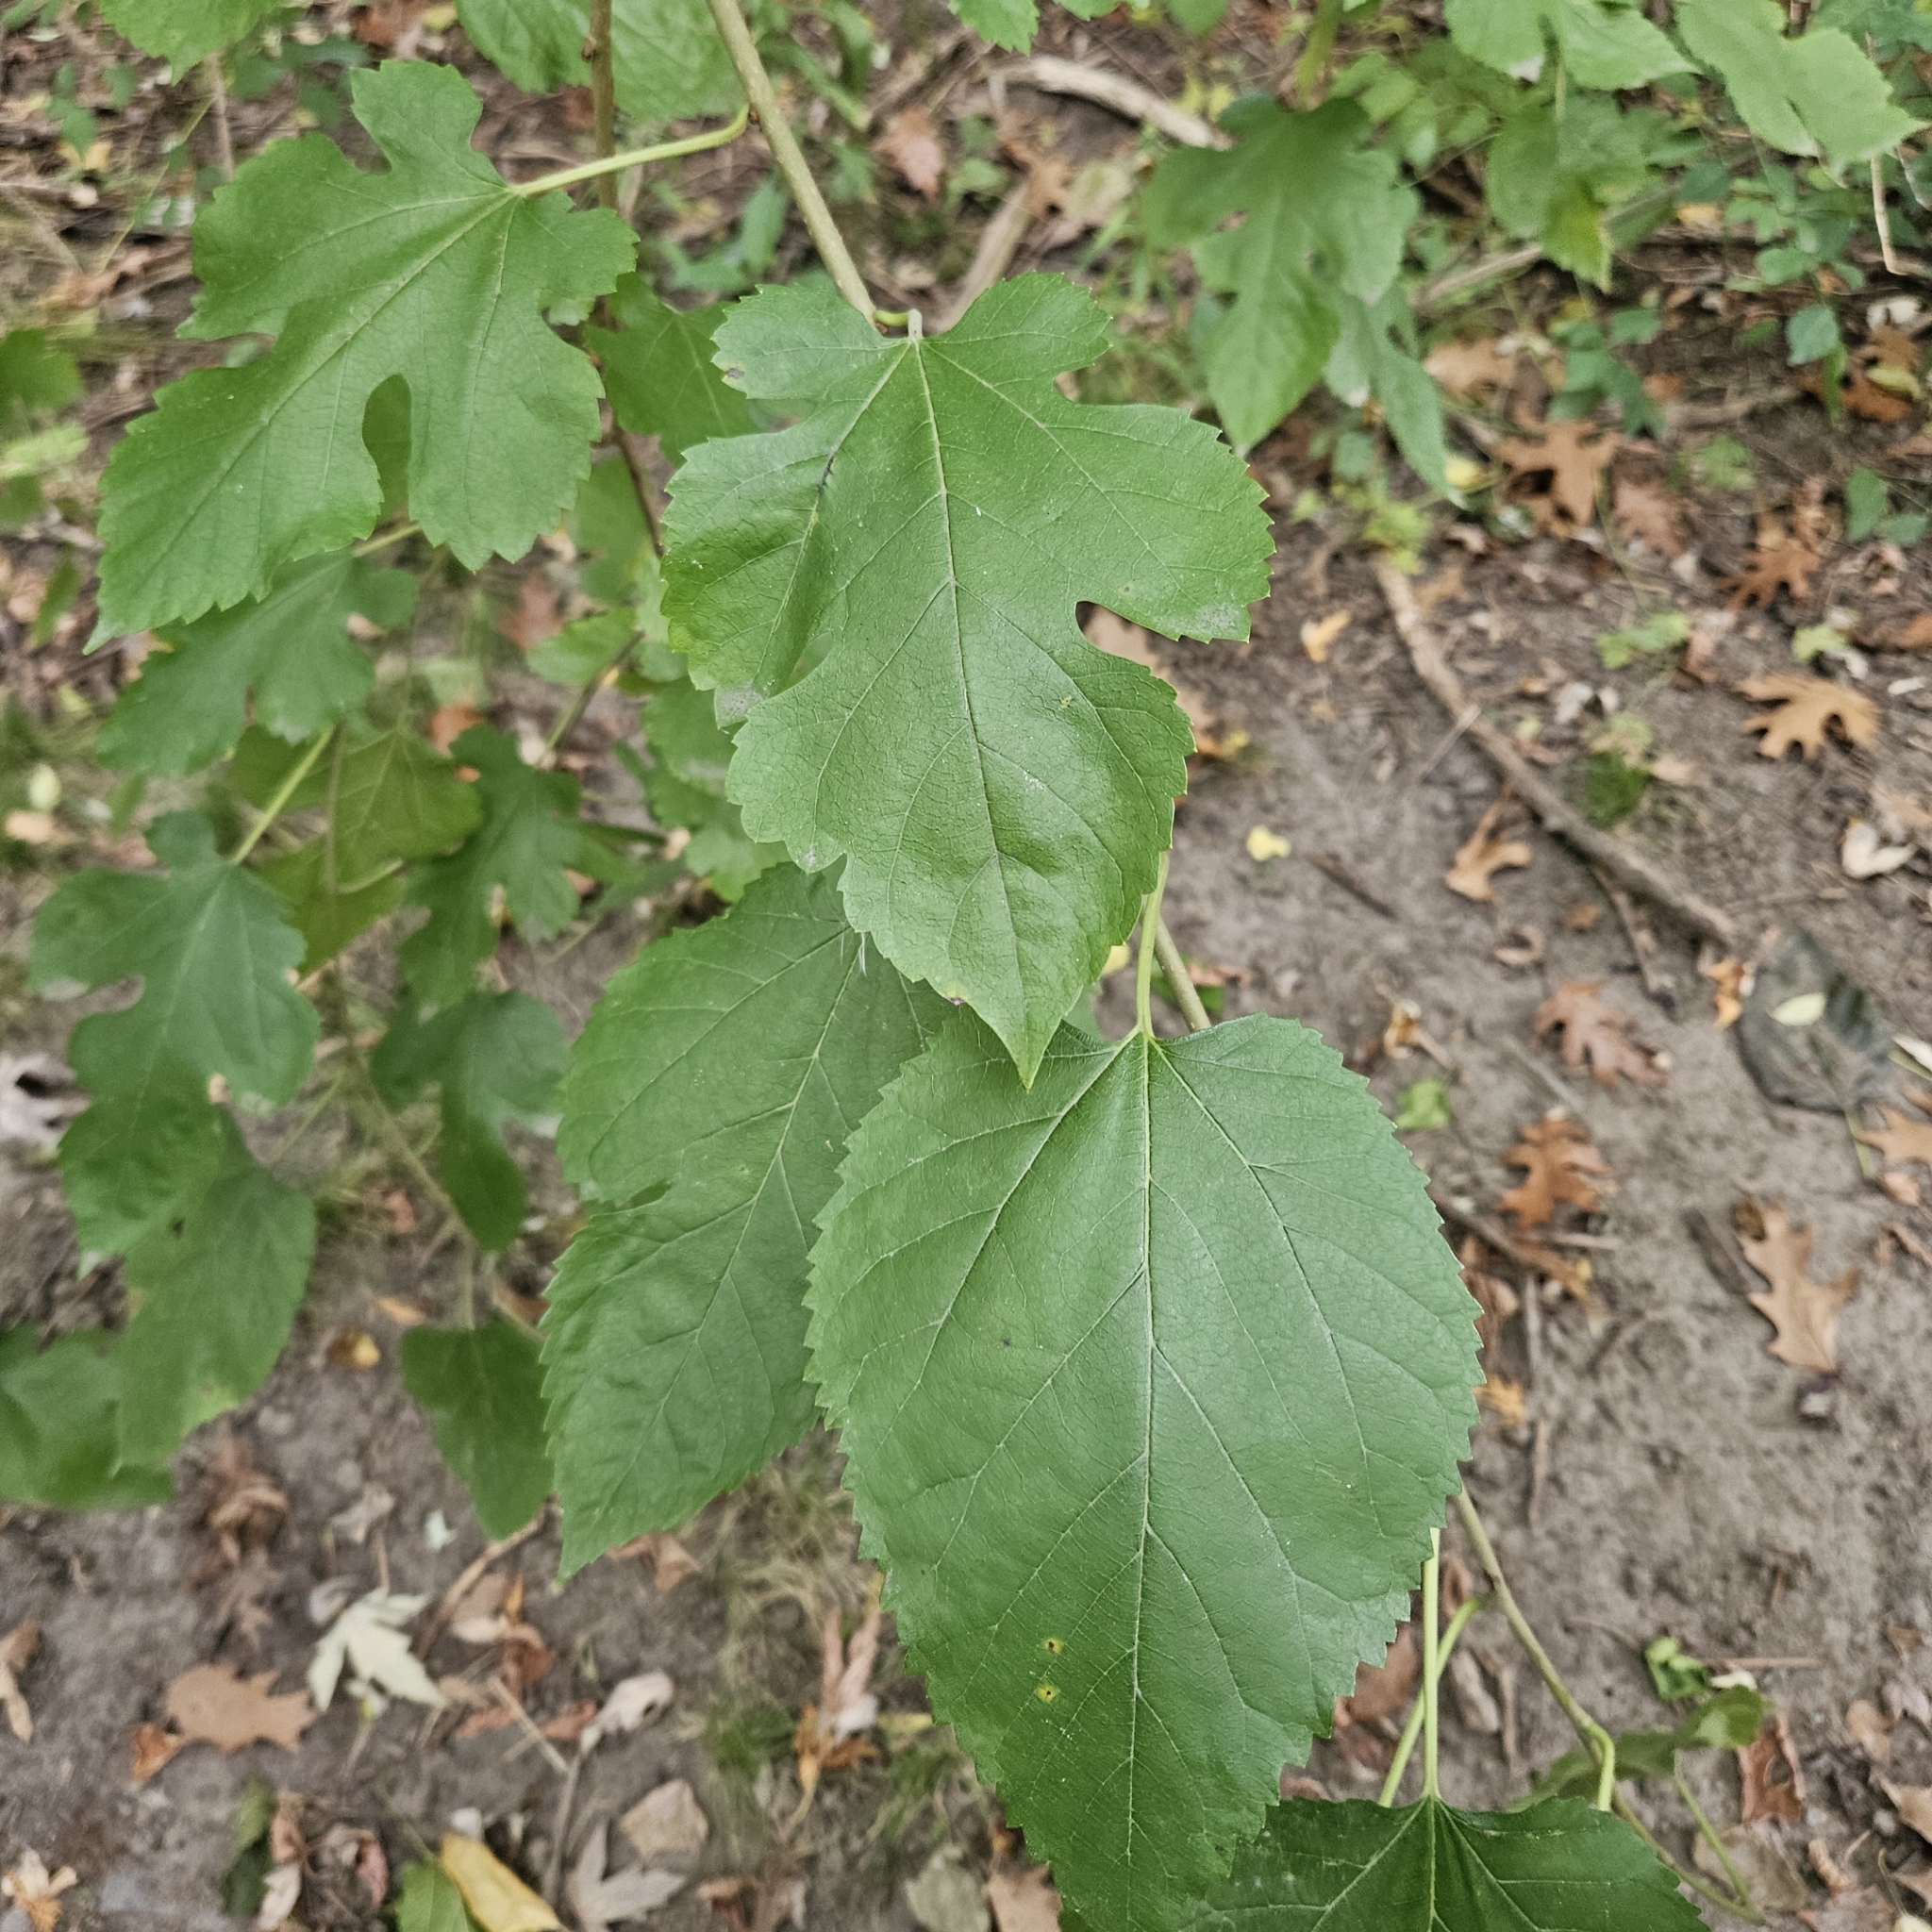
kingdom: Plantae
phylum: Tracheophyta
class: Magnoliopsida
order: Rosales
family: Moraceae
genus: Morus
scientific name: Morus alba
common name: White mulberry
